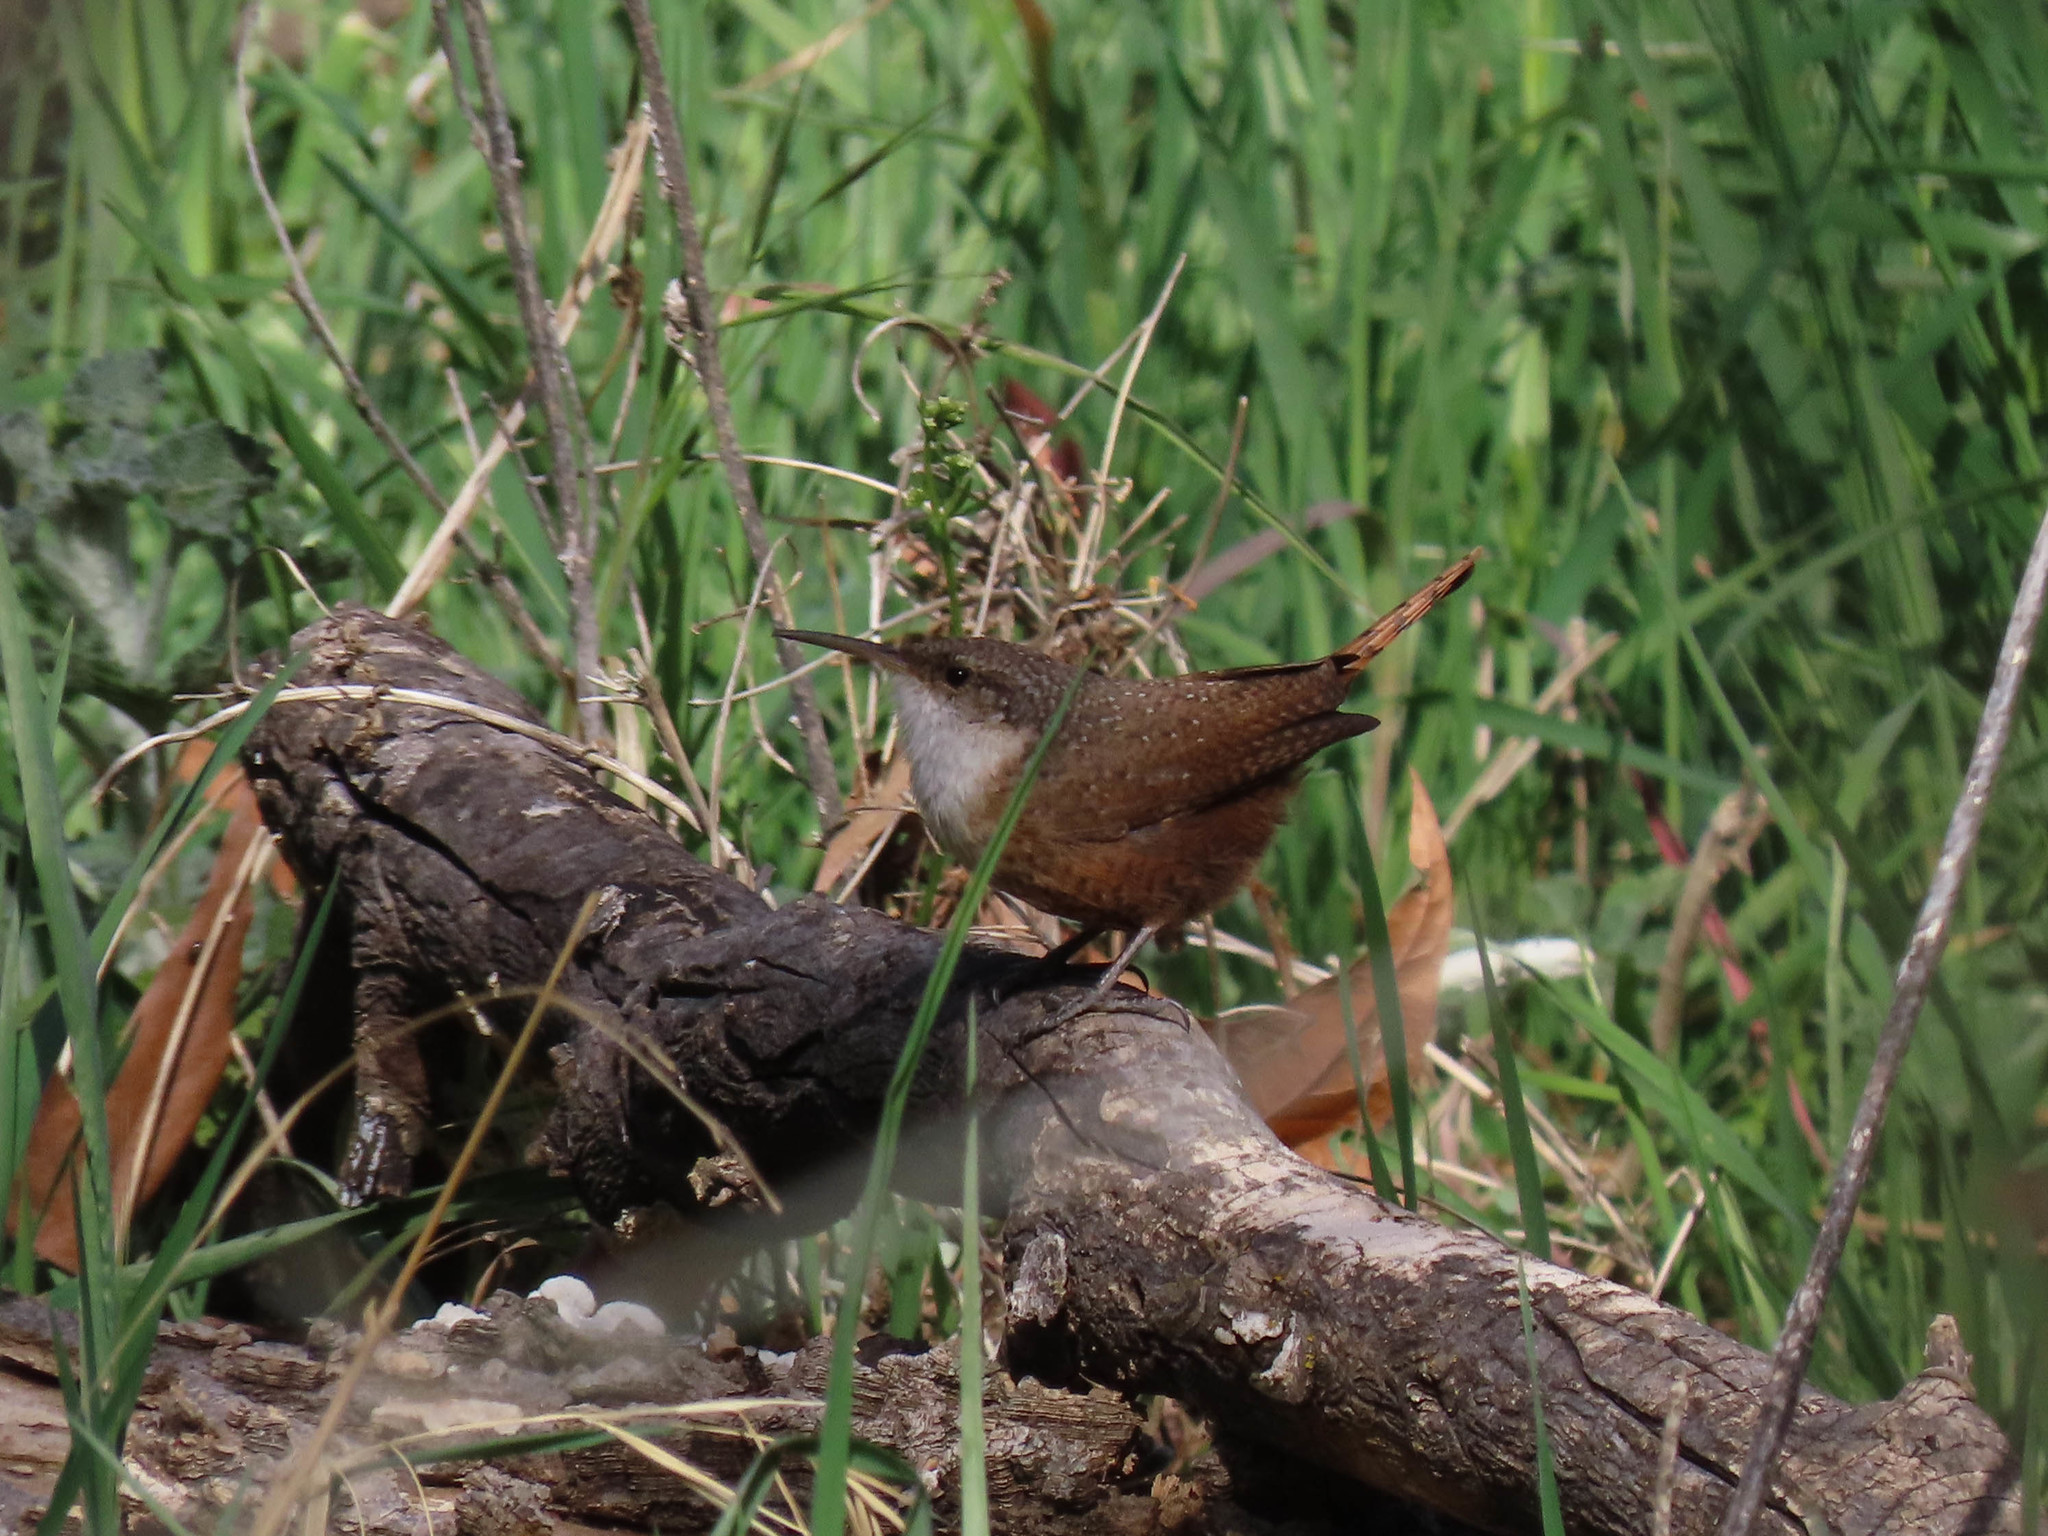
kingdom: Animalia
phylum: Chordata
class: Aves
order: Passeriformes
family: Troglodytidae
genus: Catherpes
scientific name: Catherpes mexicanus
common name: Canyon wren
